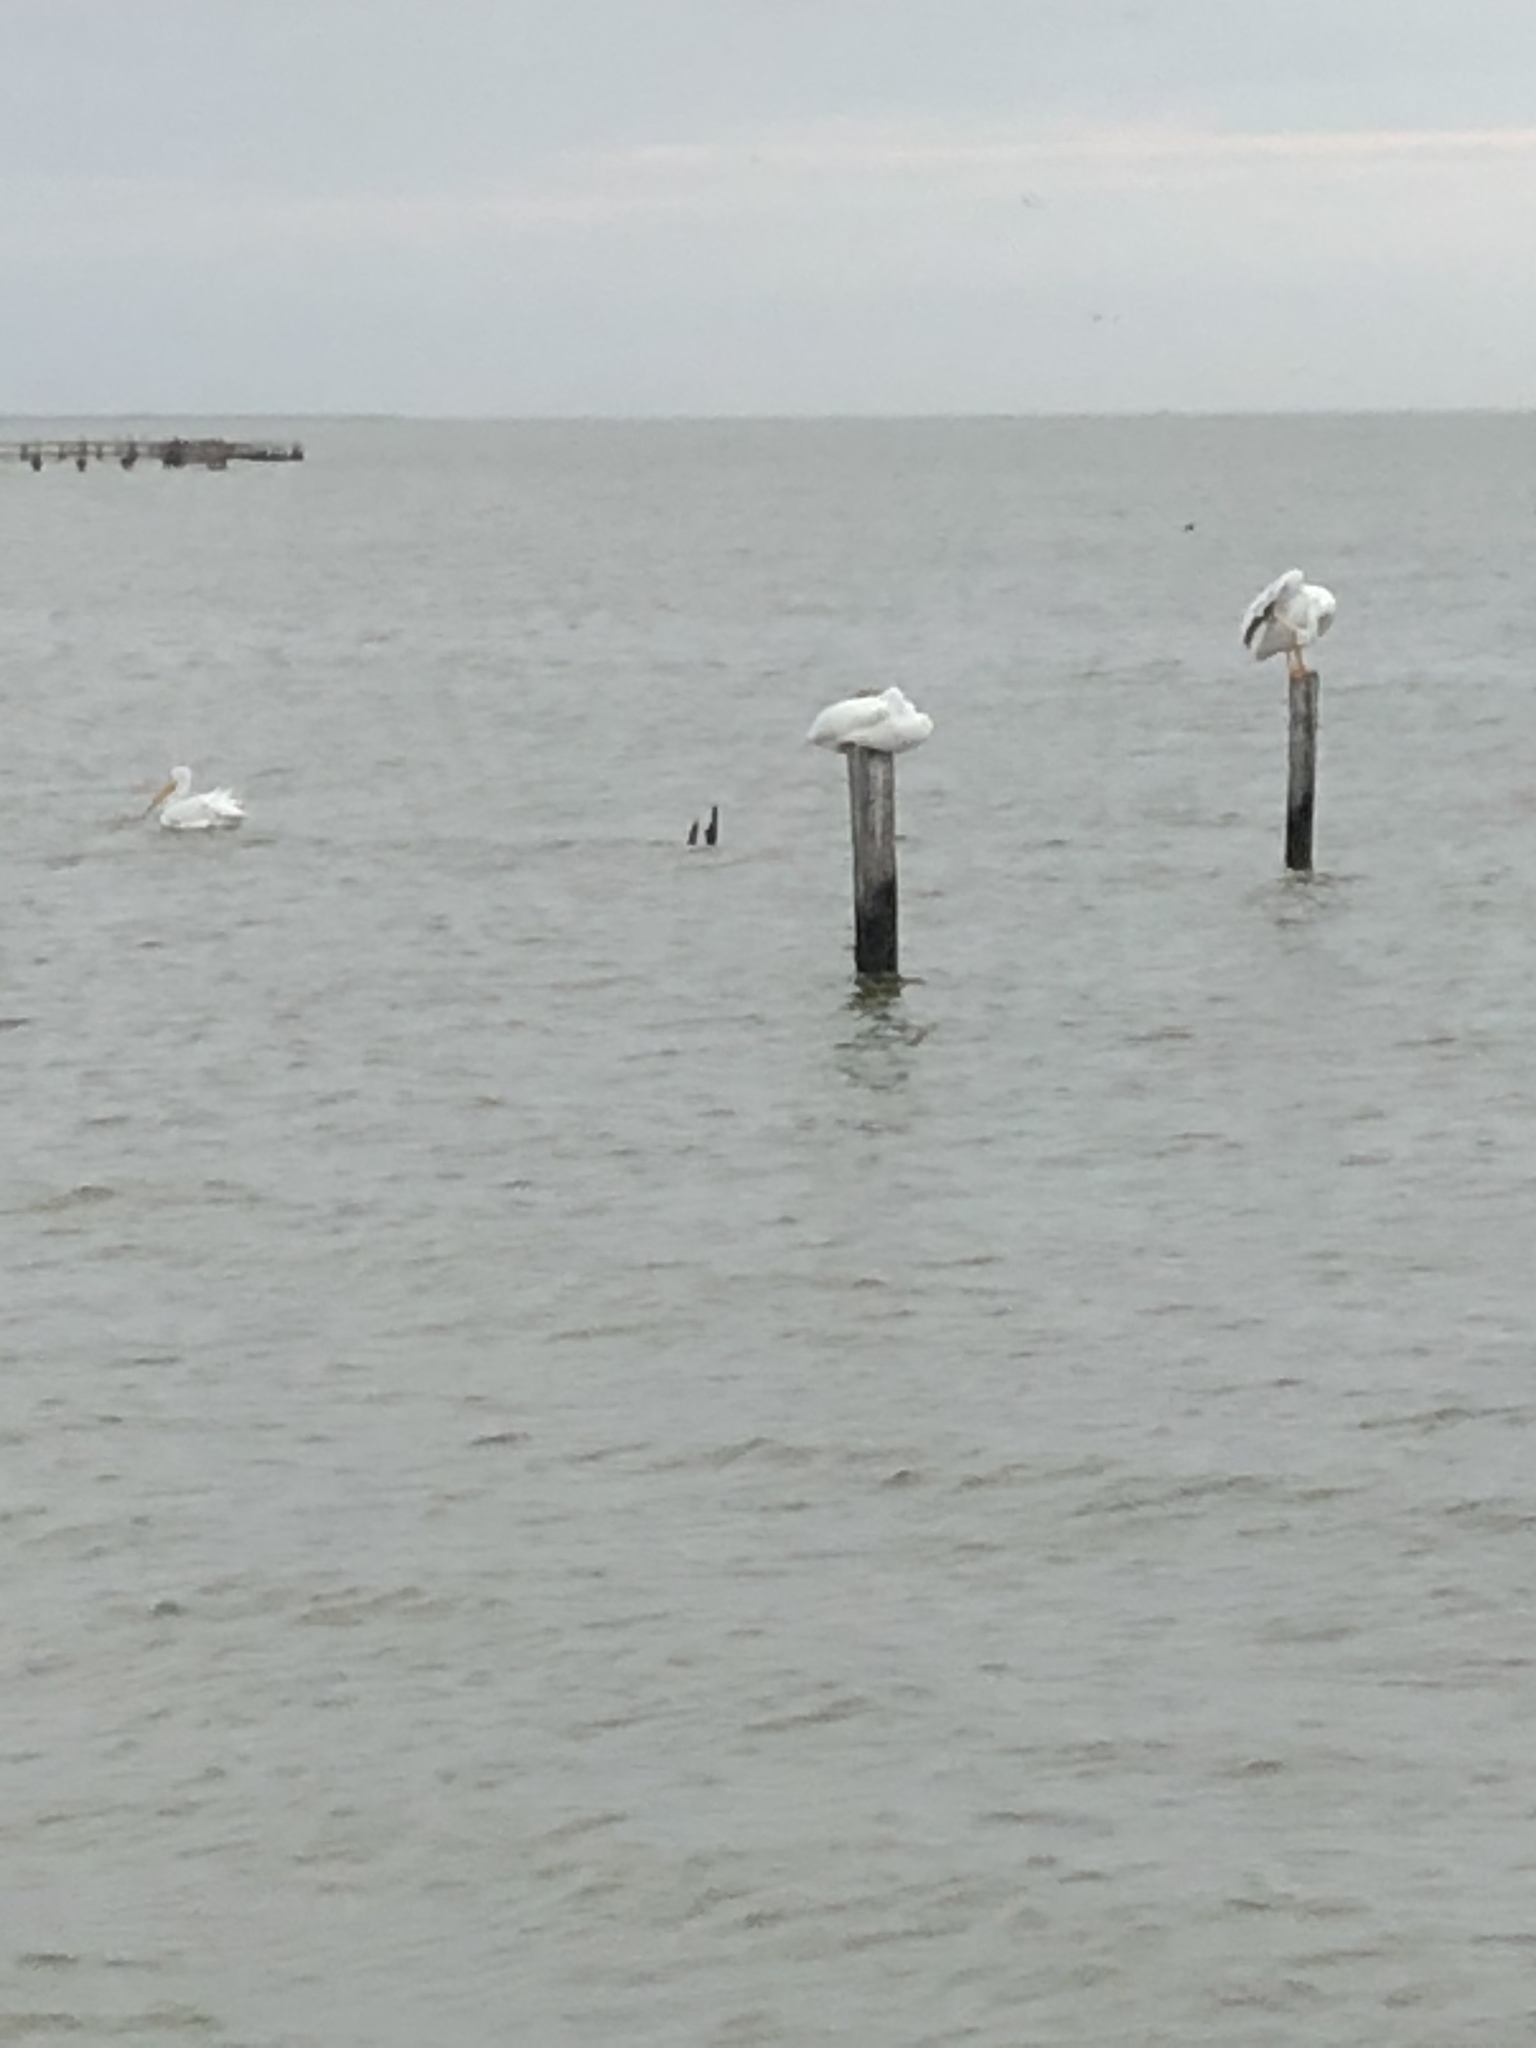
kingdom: Animalia
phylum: Chordata
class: Aves
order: Pelecaniformes
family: Pelecanidae
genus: Pelecanus
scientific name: Pelecanus erythrorhynchos
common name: American white pelican
